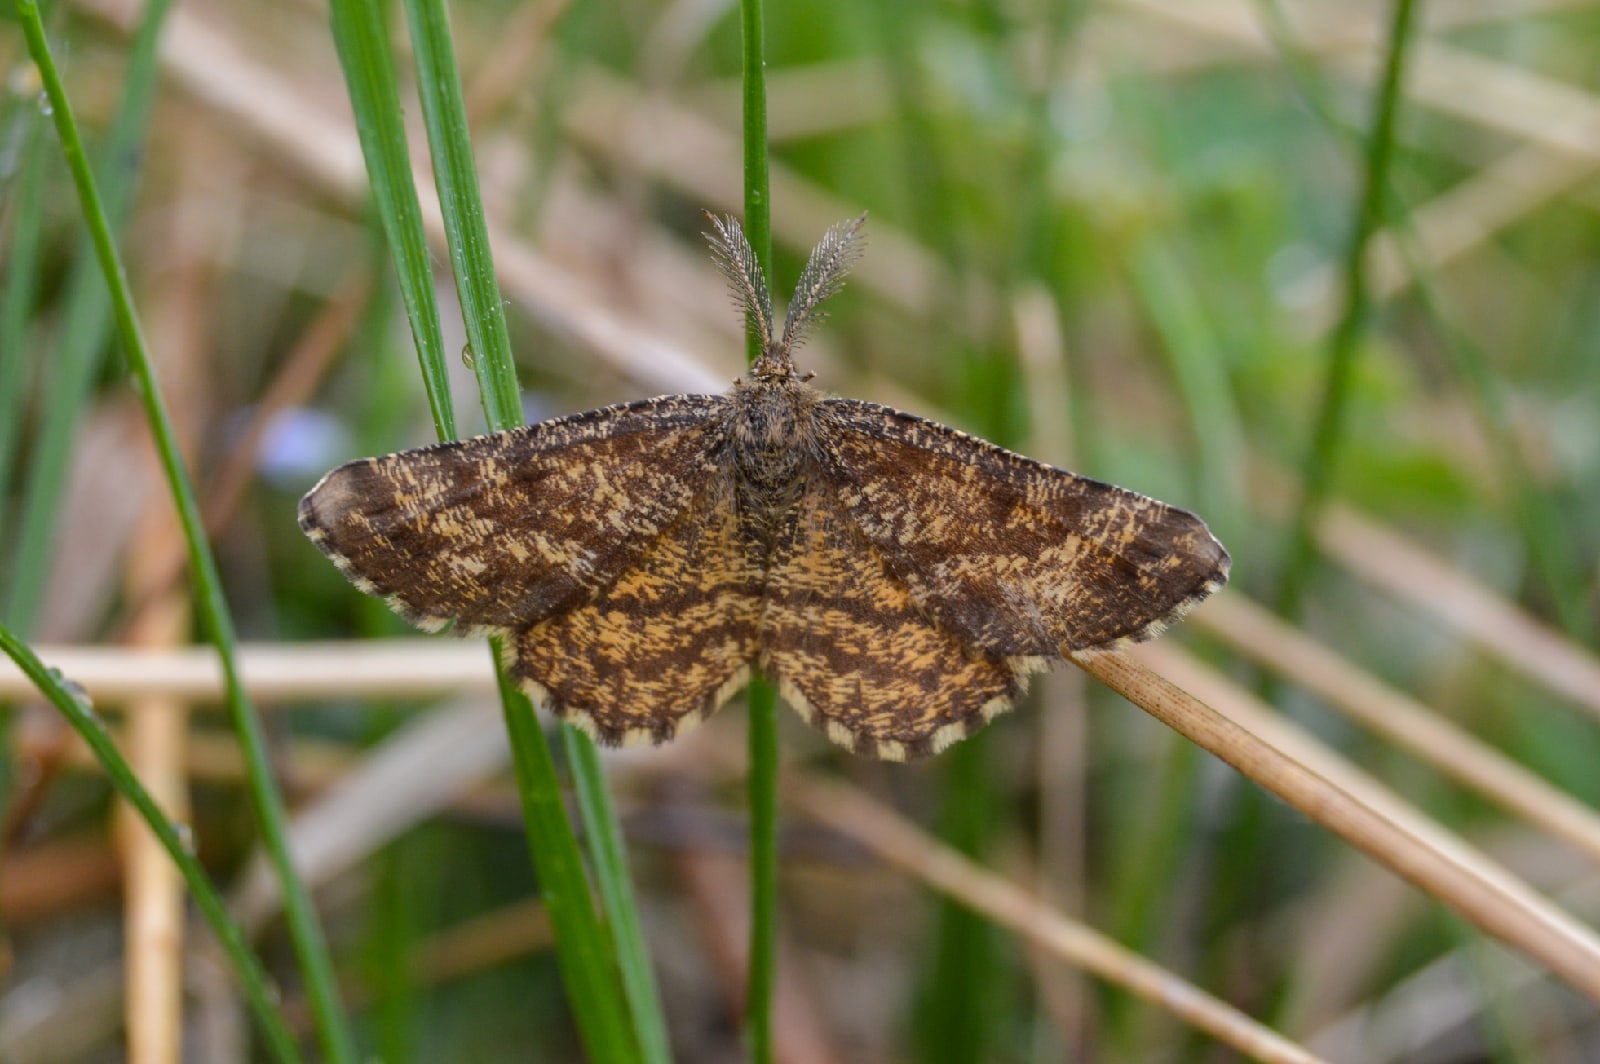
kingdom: Animalia
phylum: Arthropoda
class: Insecta
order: Lepidoptera
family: Geometridae
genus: Ematurga
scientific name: Ematurga atomaria
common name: Common heath
